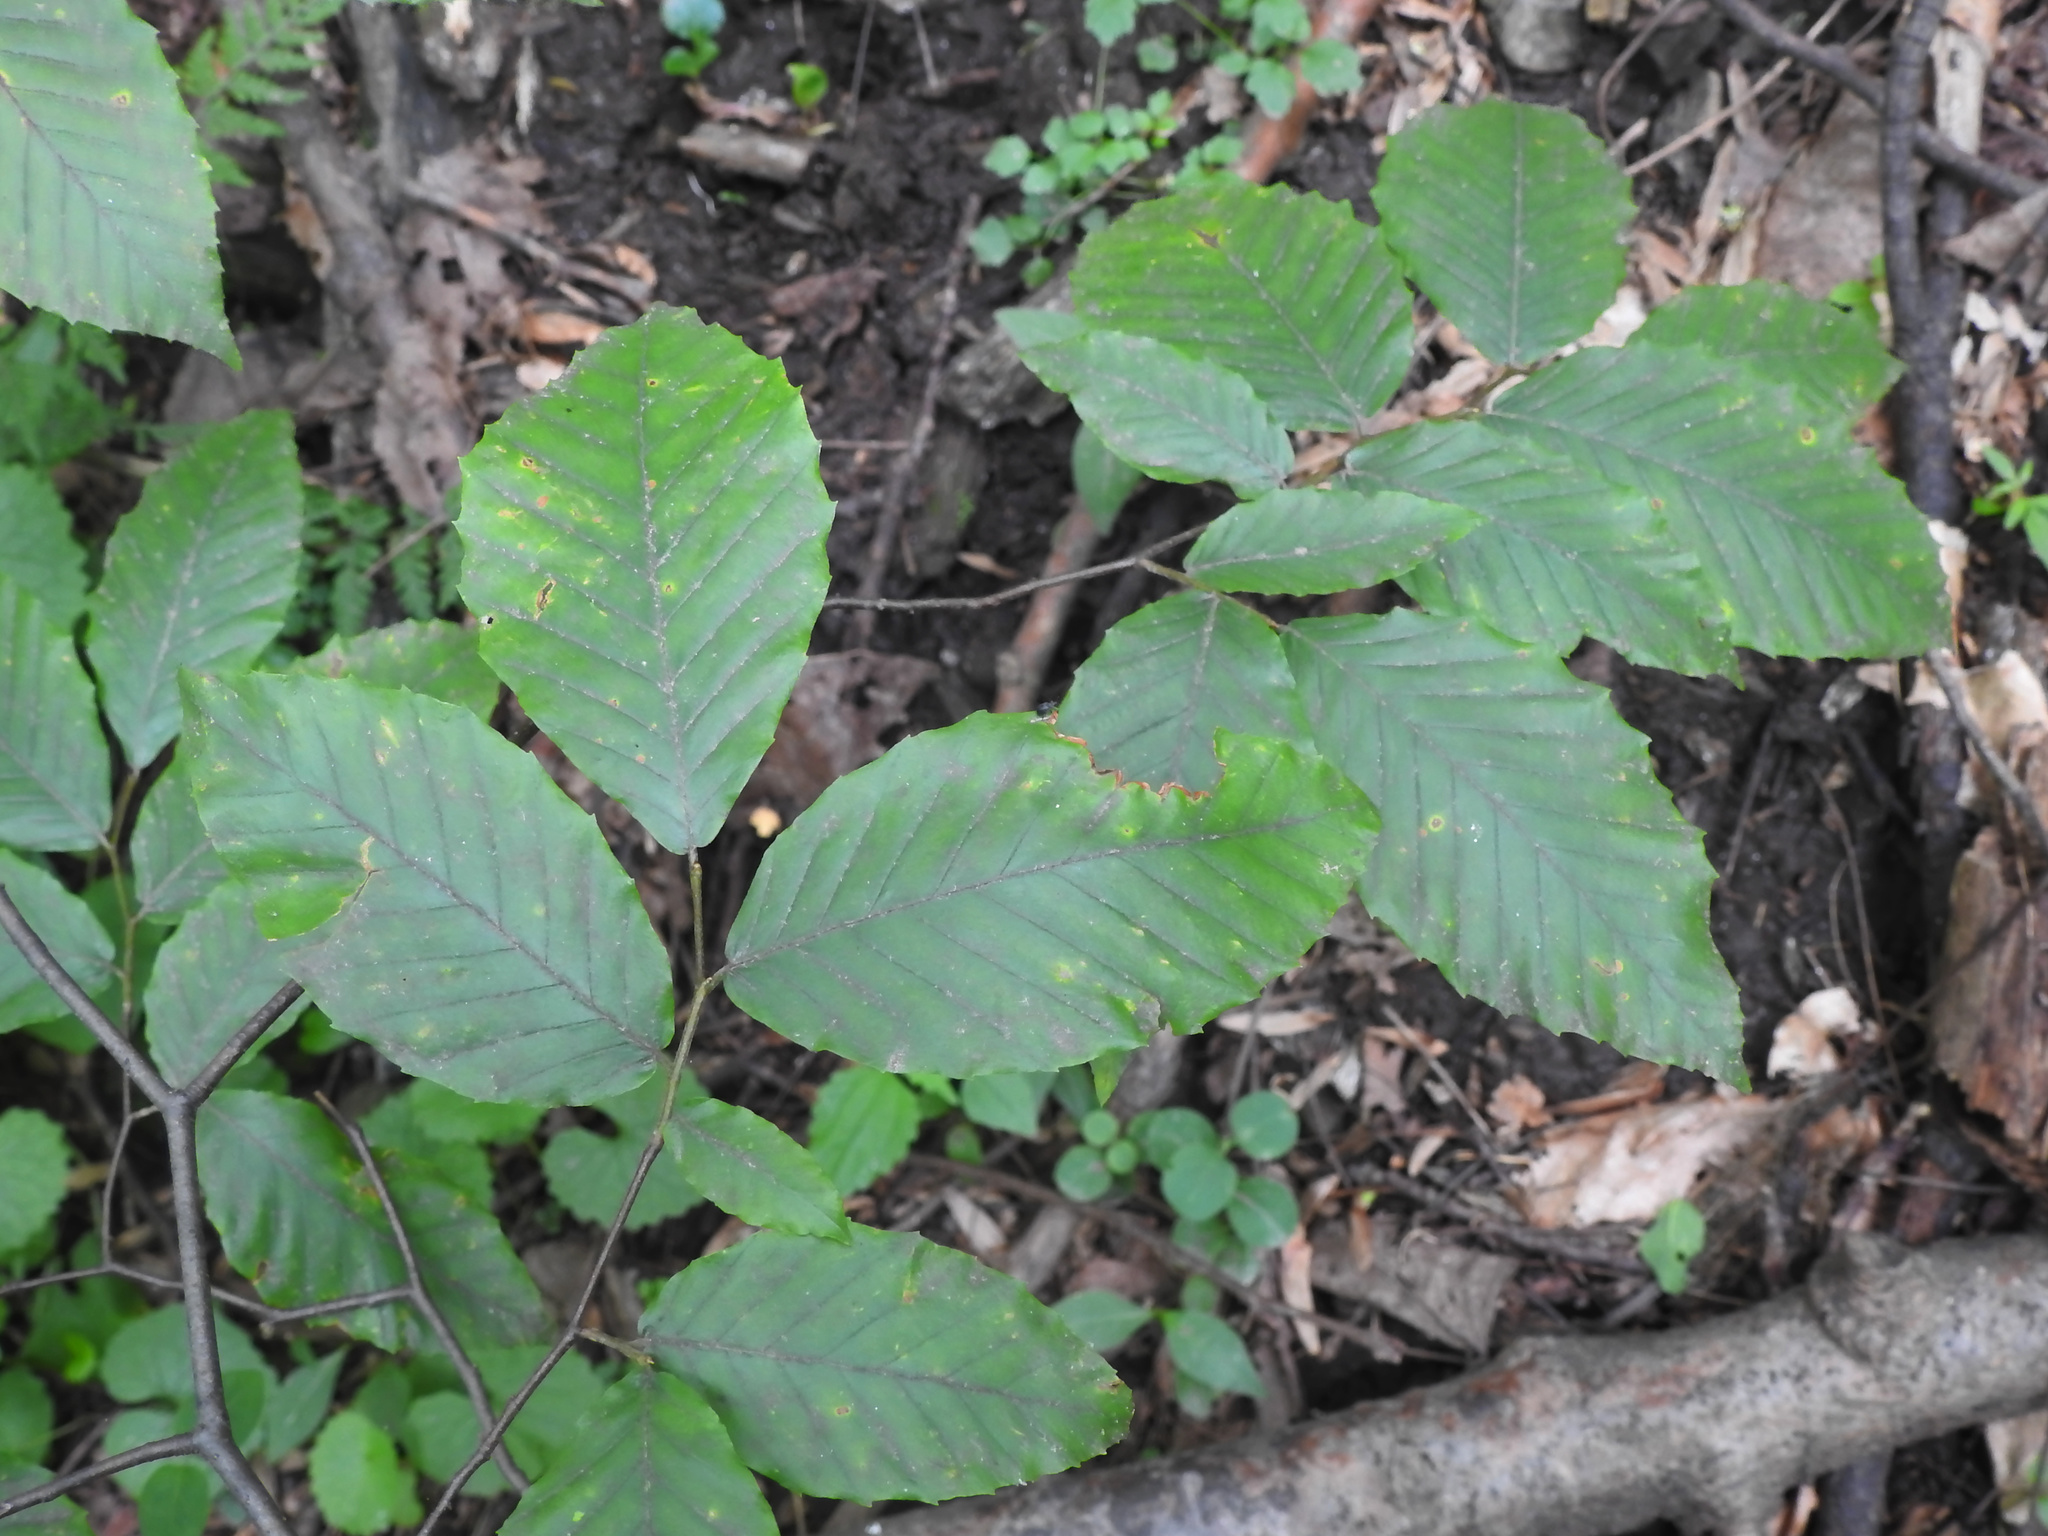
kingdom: Plantae
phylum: Tracheophyta
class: Magnoliopsida
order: Fagales
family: Fagaceae
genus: Fagus
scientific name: Fagus grandifolia
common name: American beech
